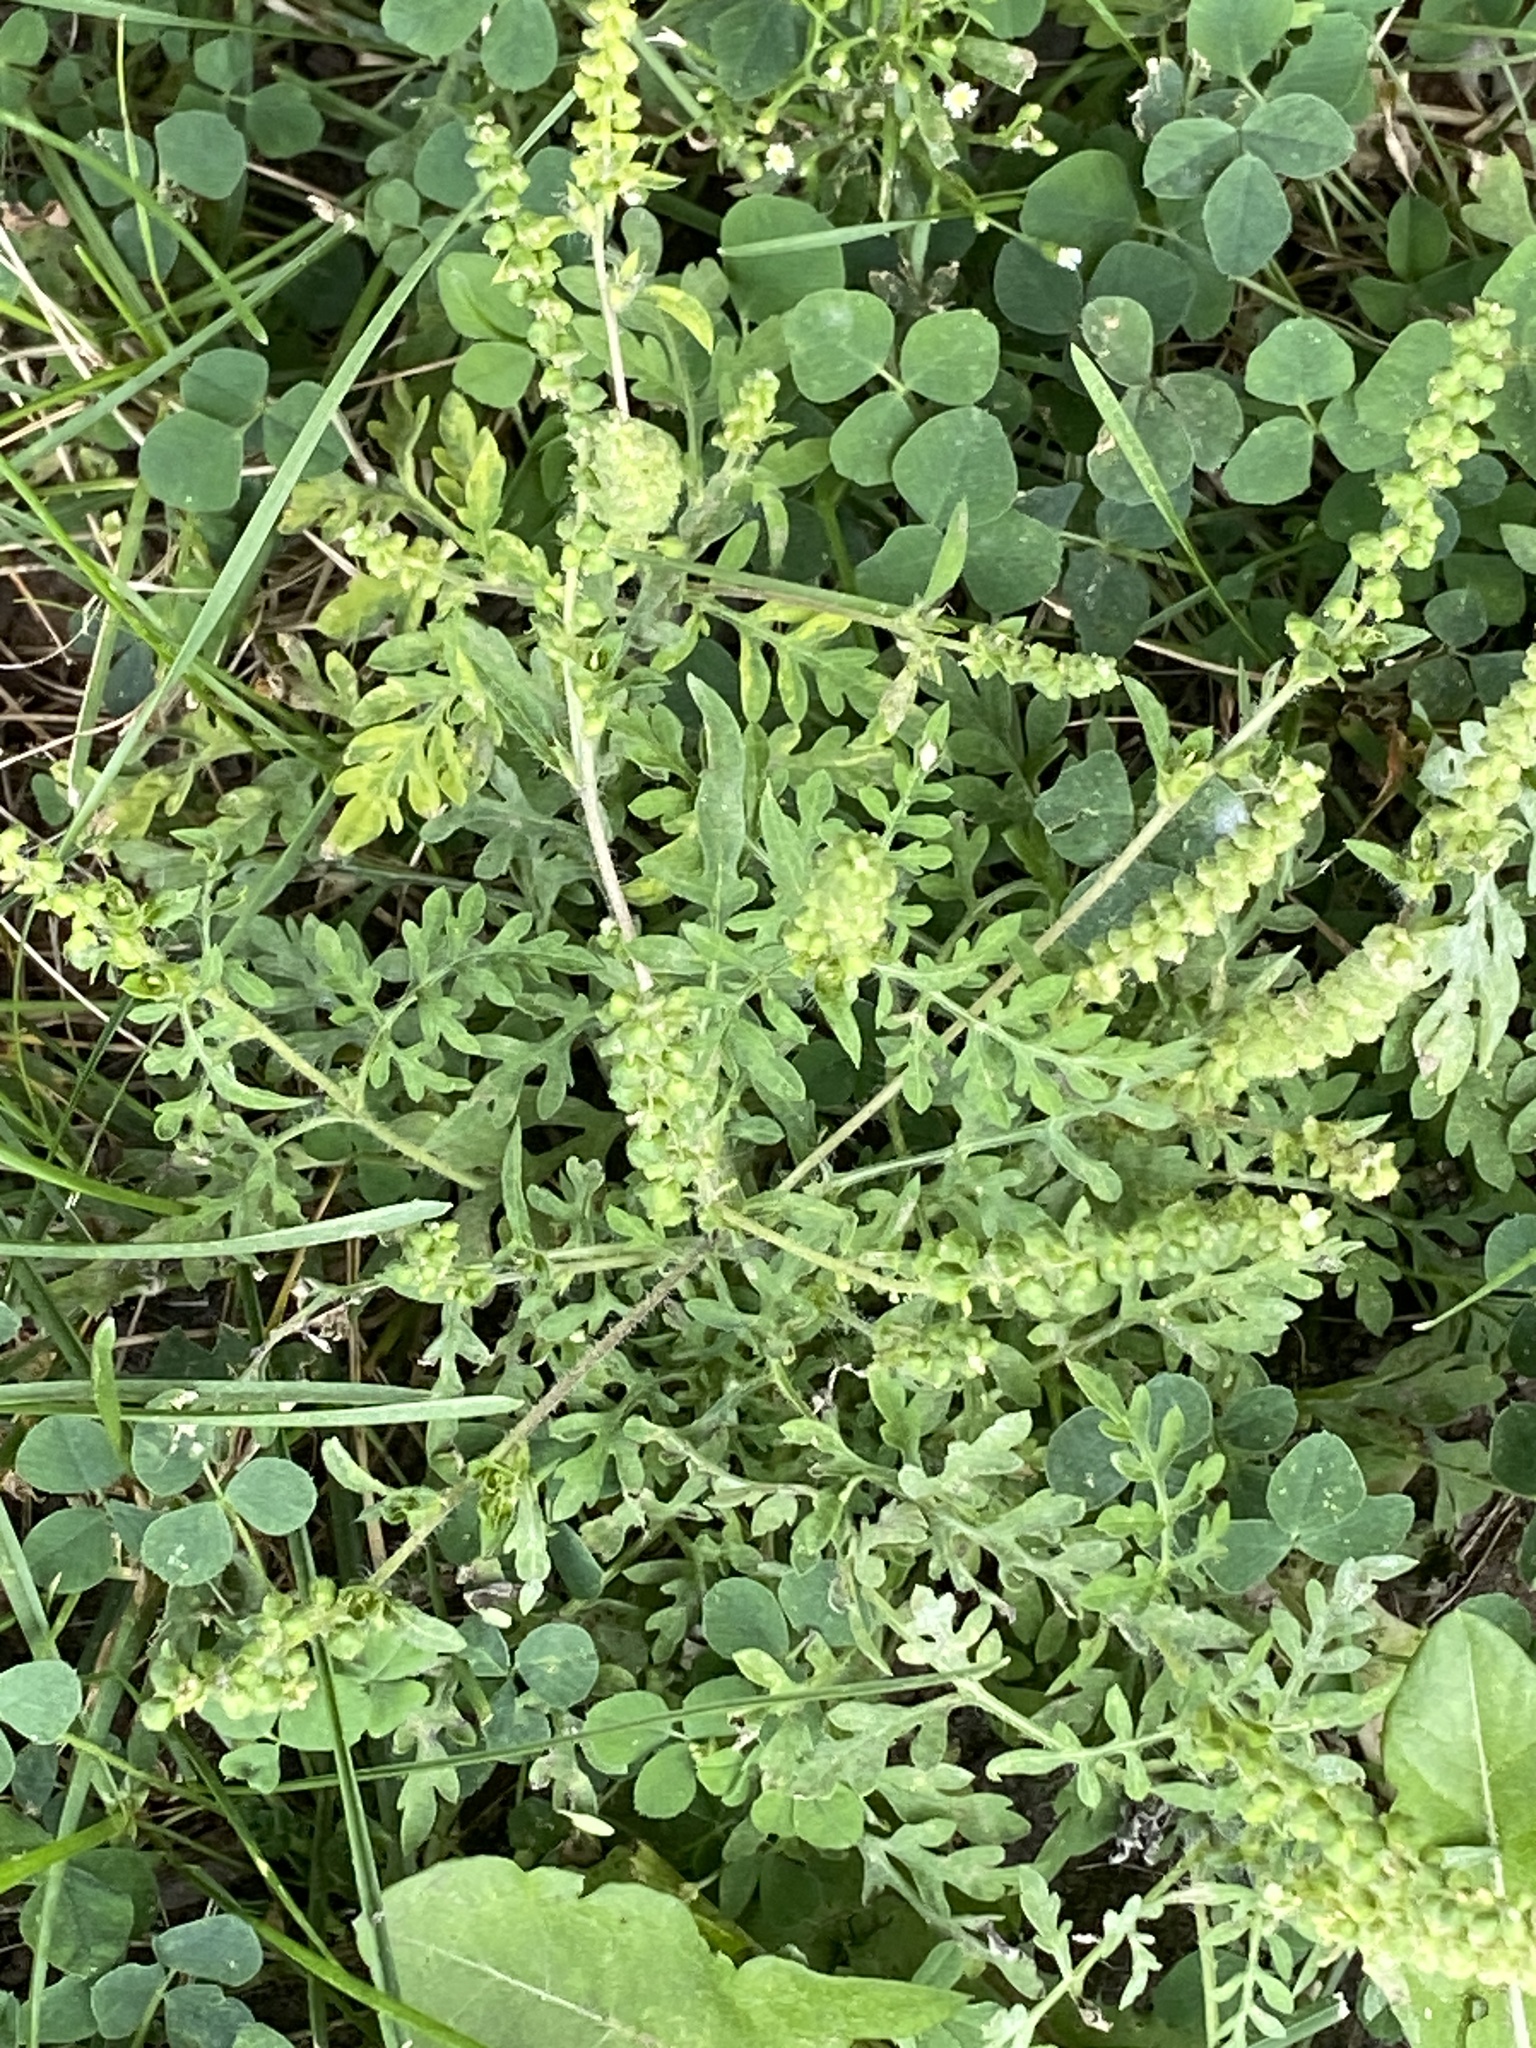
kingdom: Plantae
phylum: Tracheophyta
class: Magnoliopsida
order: Asterales
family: Asteraceae
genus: Ambrosia
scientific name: Ambrosia artemisiifolia
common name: Annual ragweed
